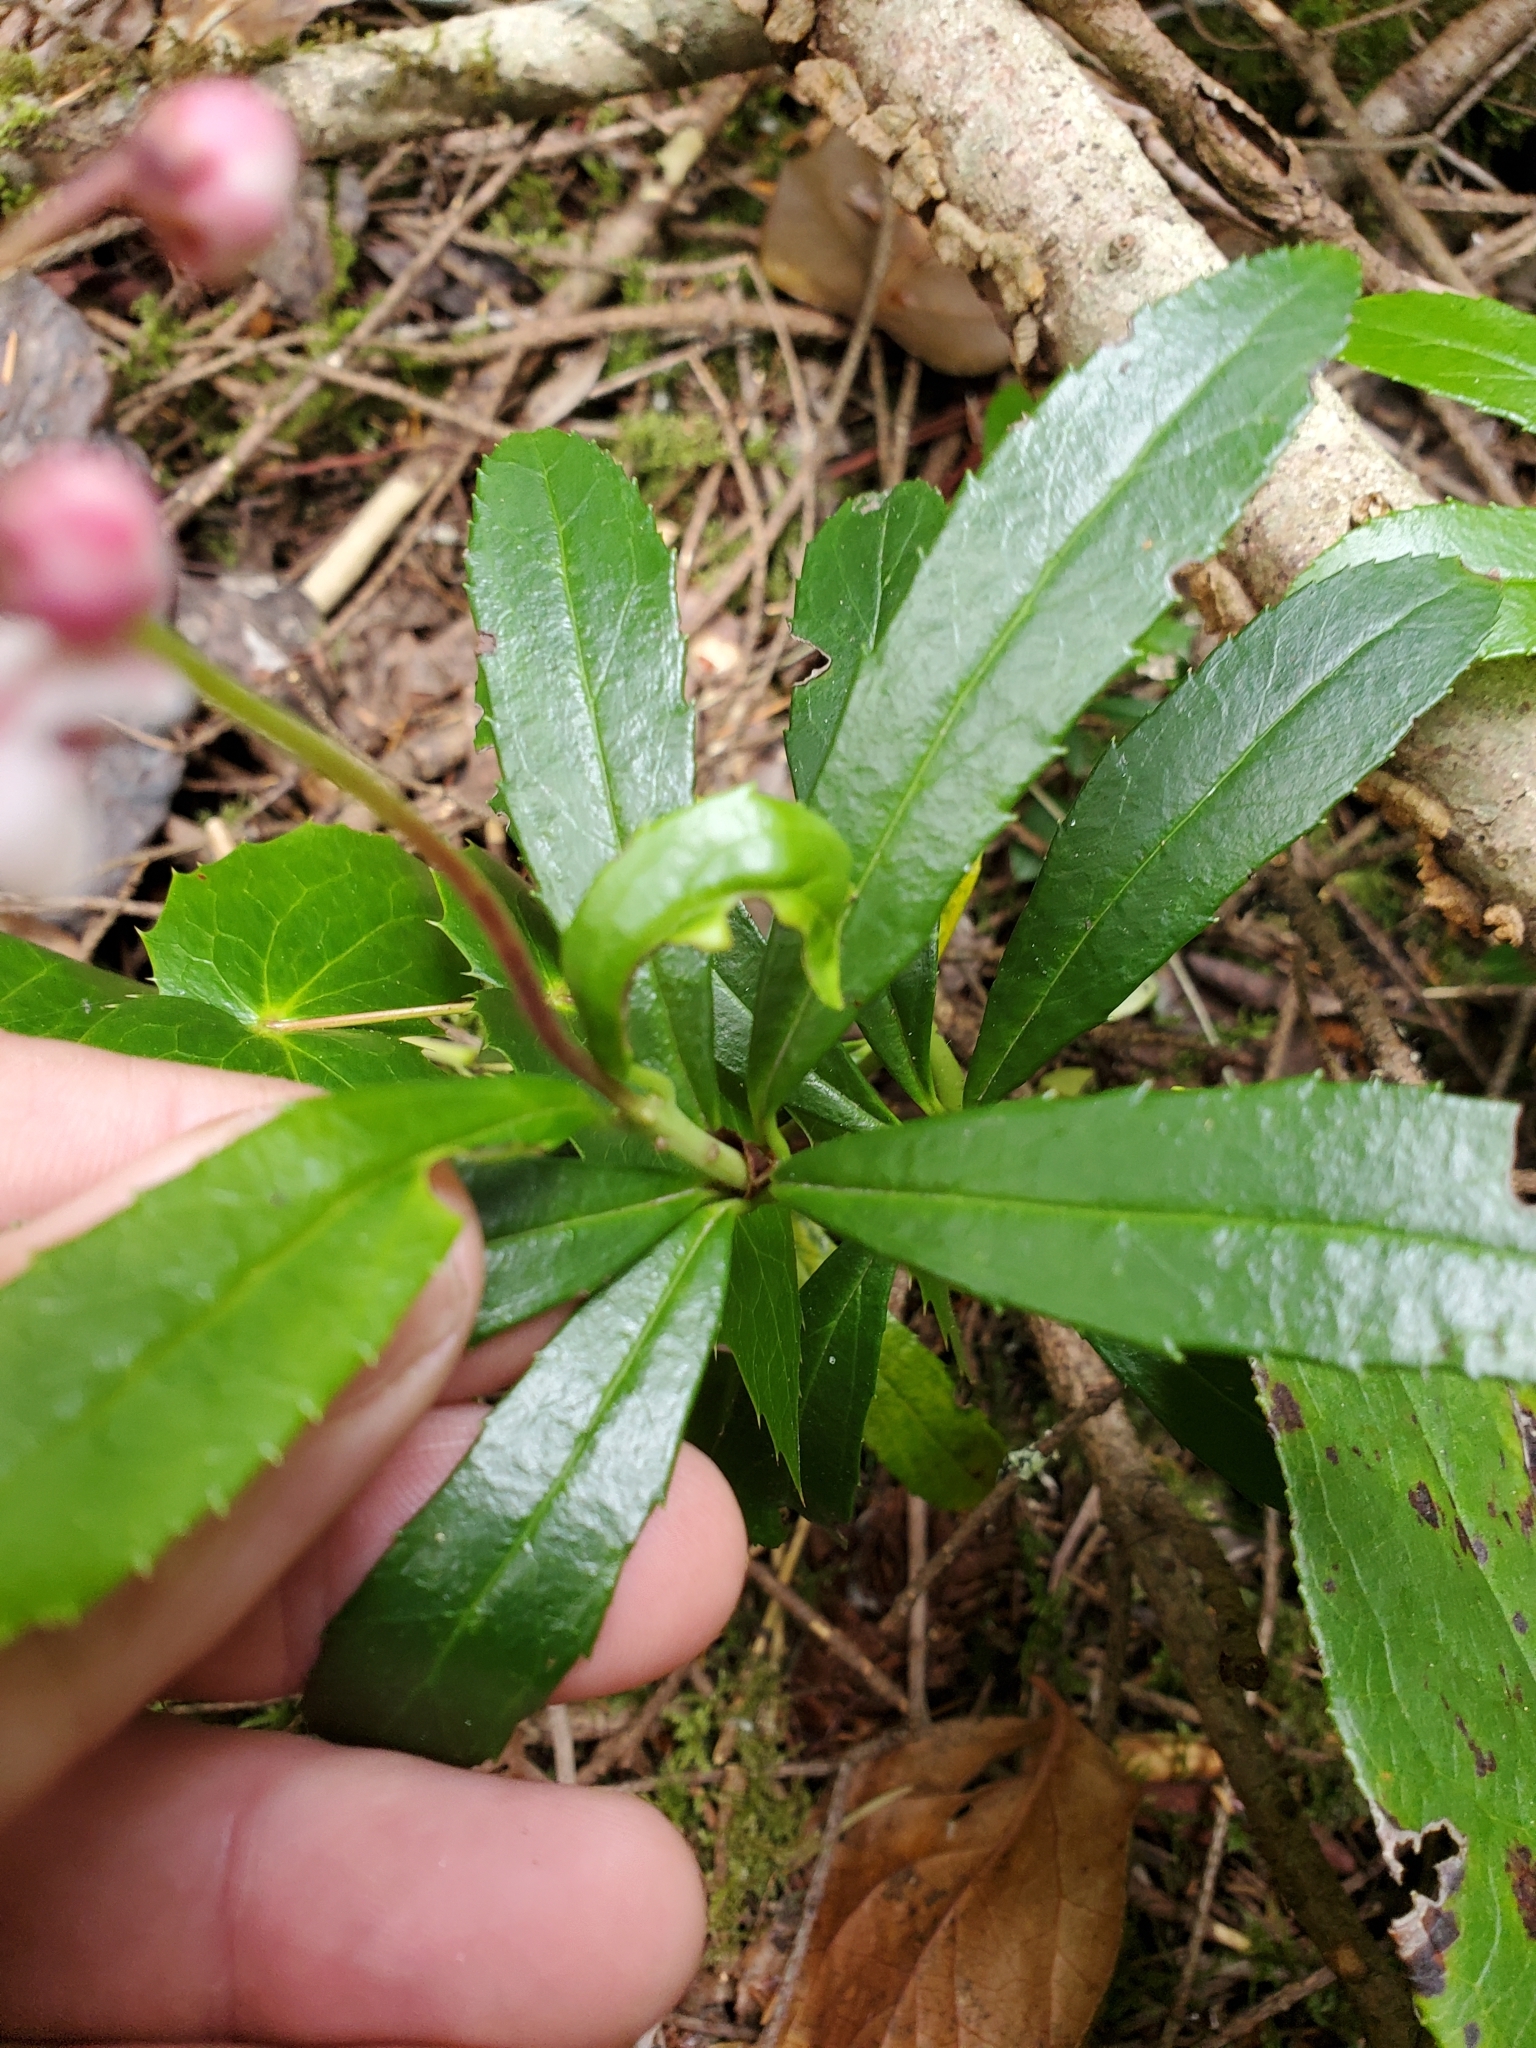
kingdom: Plantae
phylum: Tracheophyta
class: Magnoliopsida
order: Ericales
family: Ericaceae
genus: Chimaphila
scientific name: Chimaphila umbellata
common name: Pipsissewa
